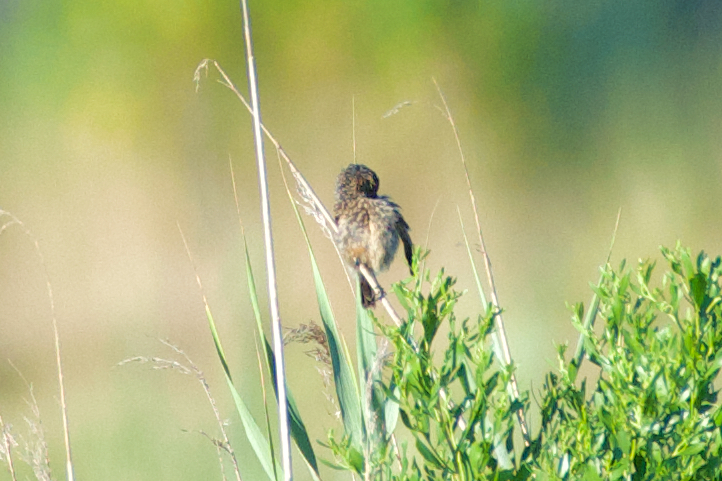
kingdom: Animalia
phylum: Chordata
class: Aves
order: Passeriformes
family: Muscicapidae
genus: Luscinia
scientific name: Luscinia svecica
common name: Bluethroat
